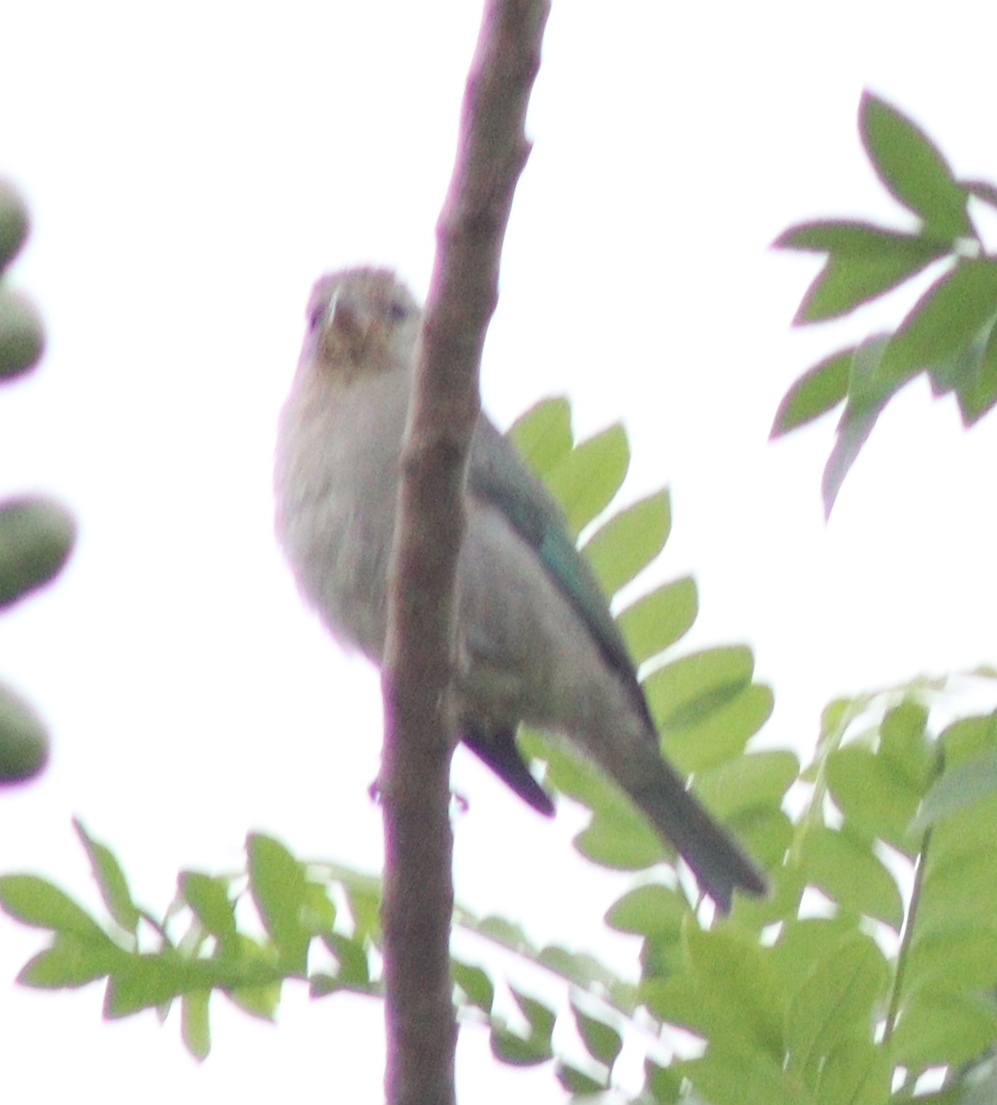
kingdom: Animalia
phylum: Chordata
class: Aves
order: Passeriformes
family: Thraupidae
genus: Thraupis
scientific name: Thraupis sayaca
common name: Sayaca tanager
